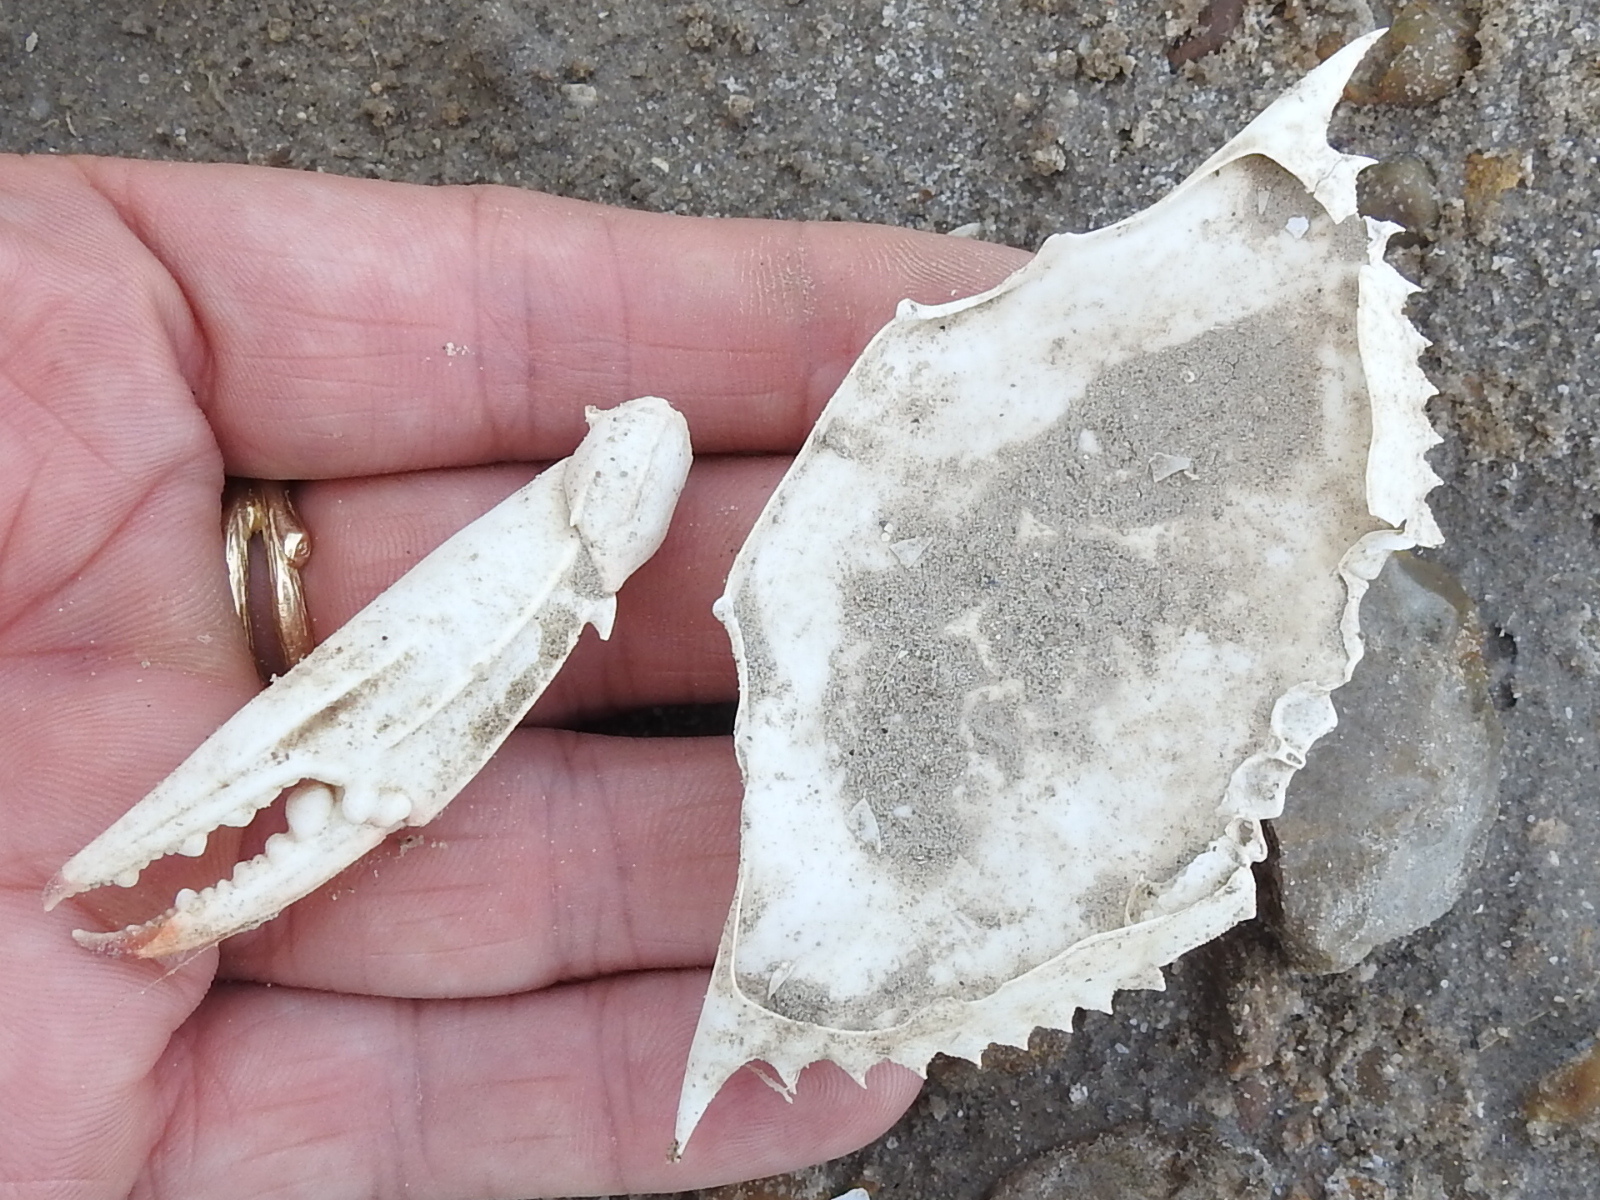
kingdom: Animalia
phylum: Arthropoda
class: Malacostraca
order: Decapoda
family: Portunidae
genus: Callinectes
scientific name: Callinectes sapidus
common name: Blue crab
